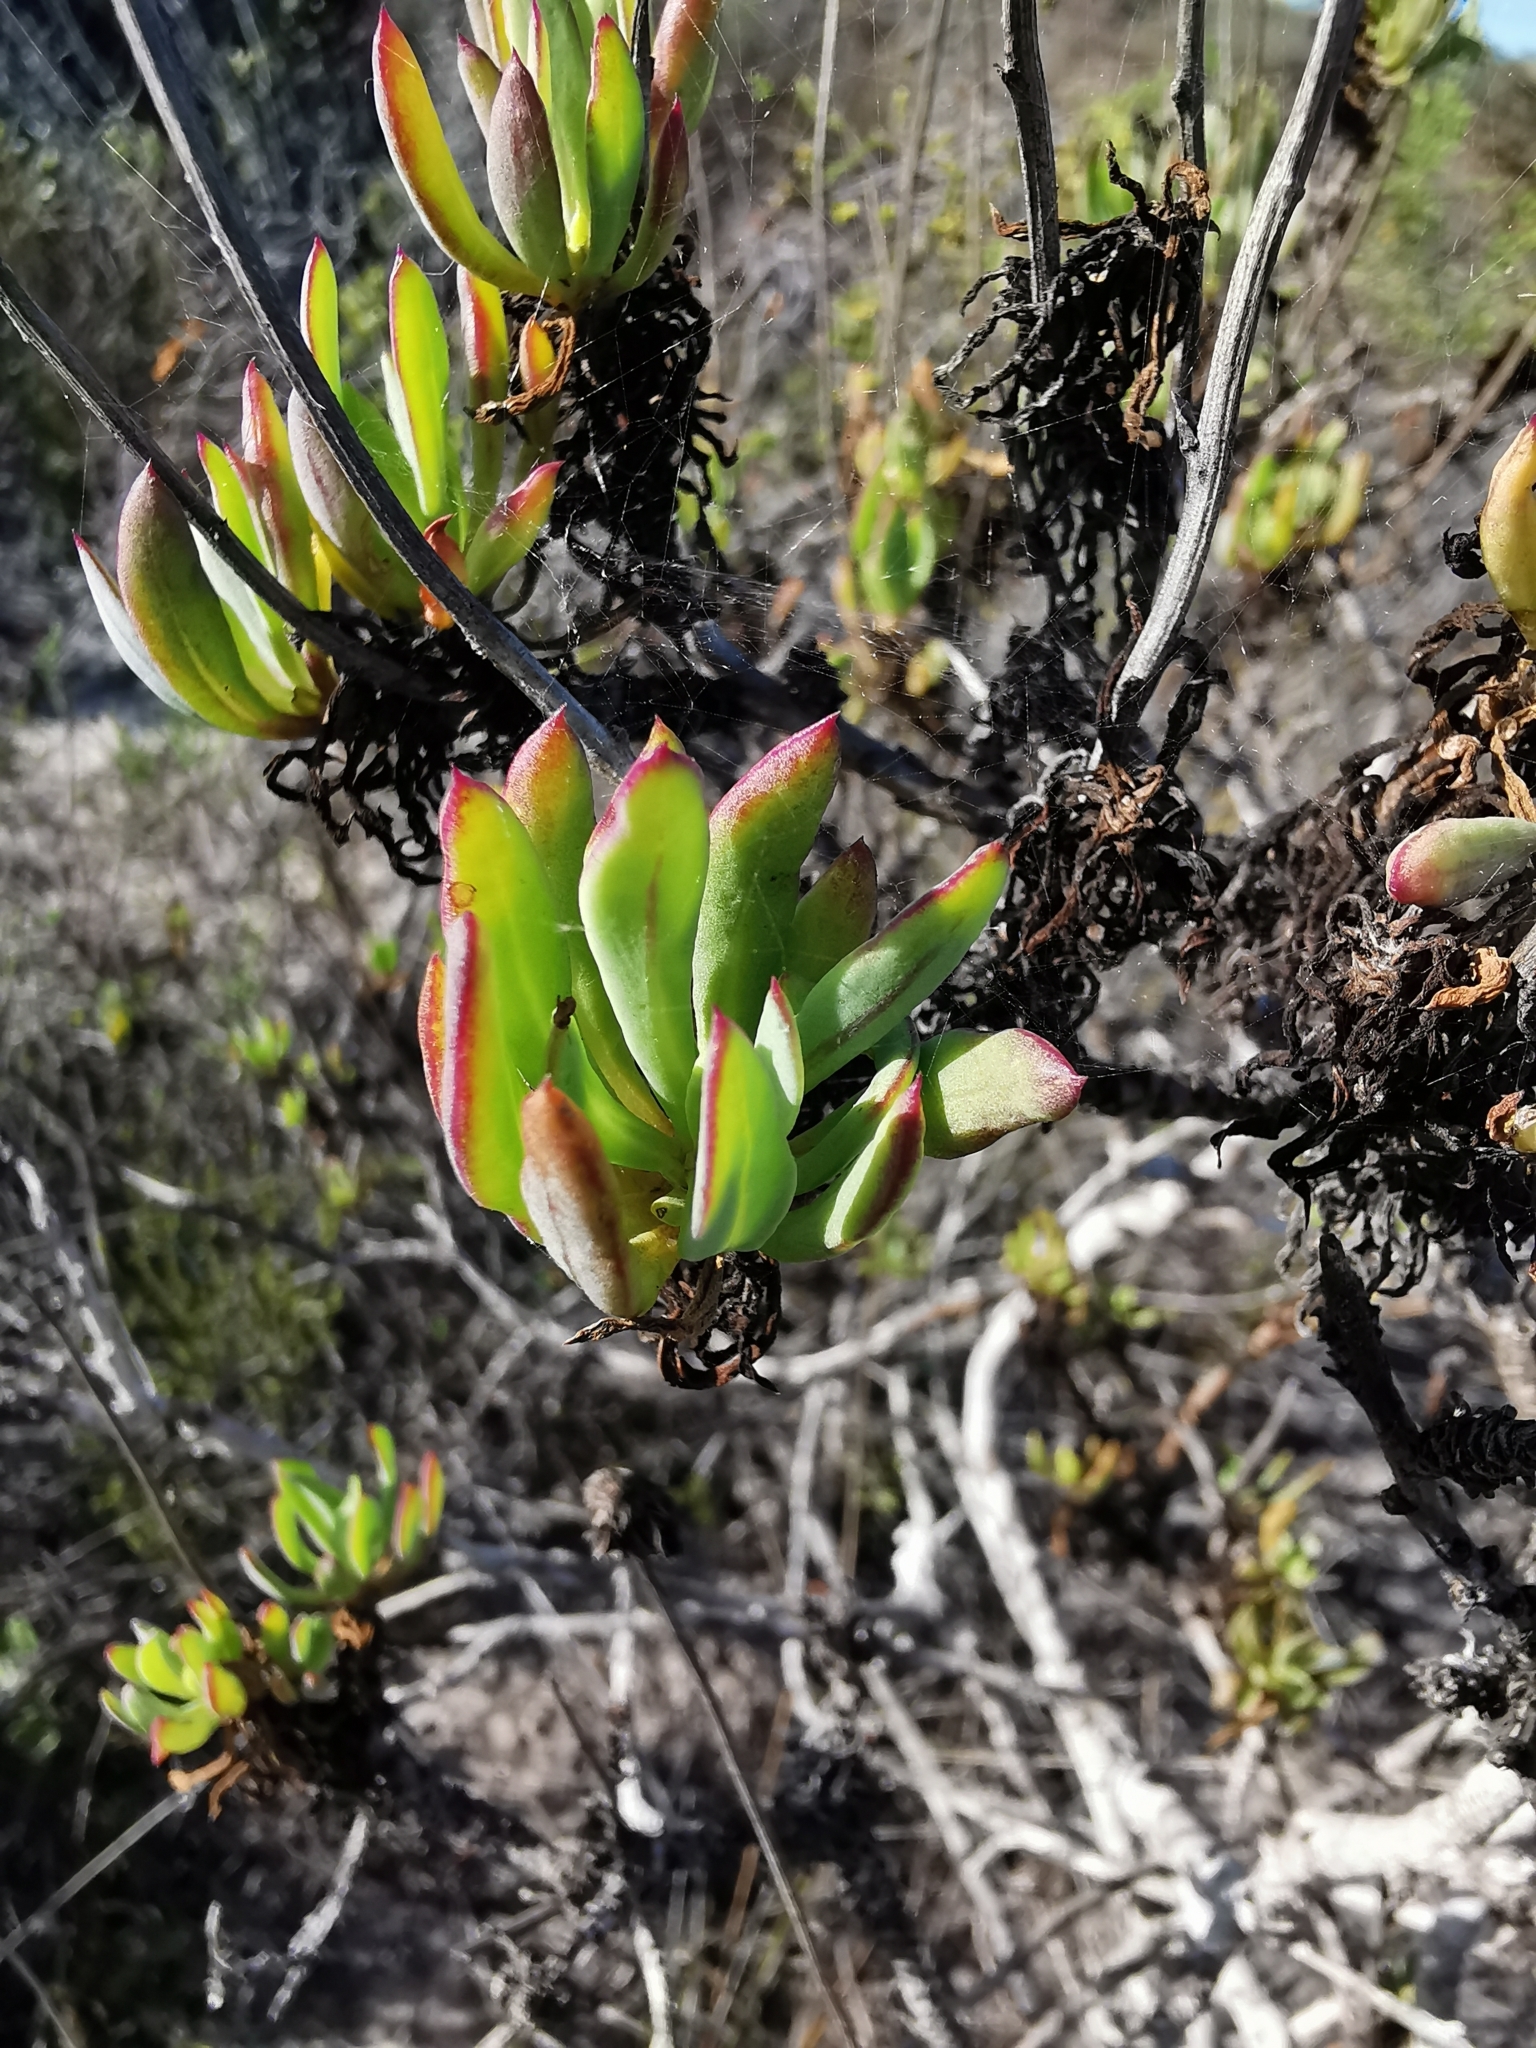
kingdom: Plantae
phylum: Tracheophyta
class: Magnoliopsida
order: Asterales
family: Asteraceae
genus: Othonna
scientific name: Othonna coronopifolia
